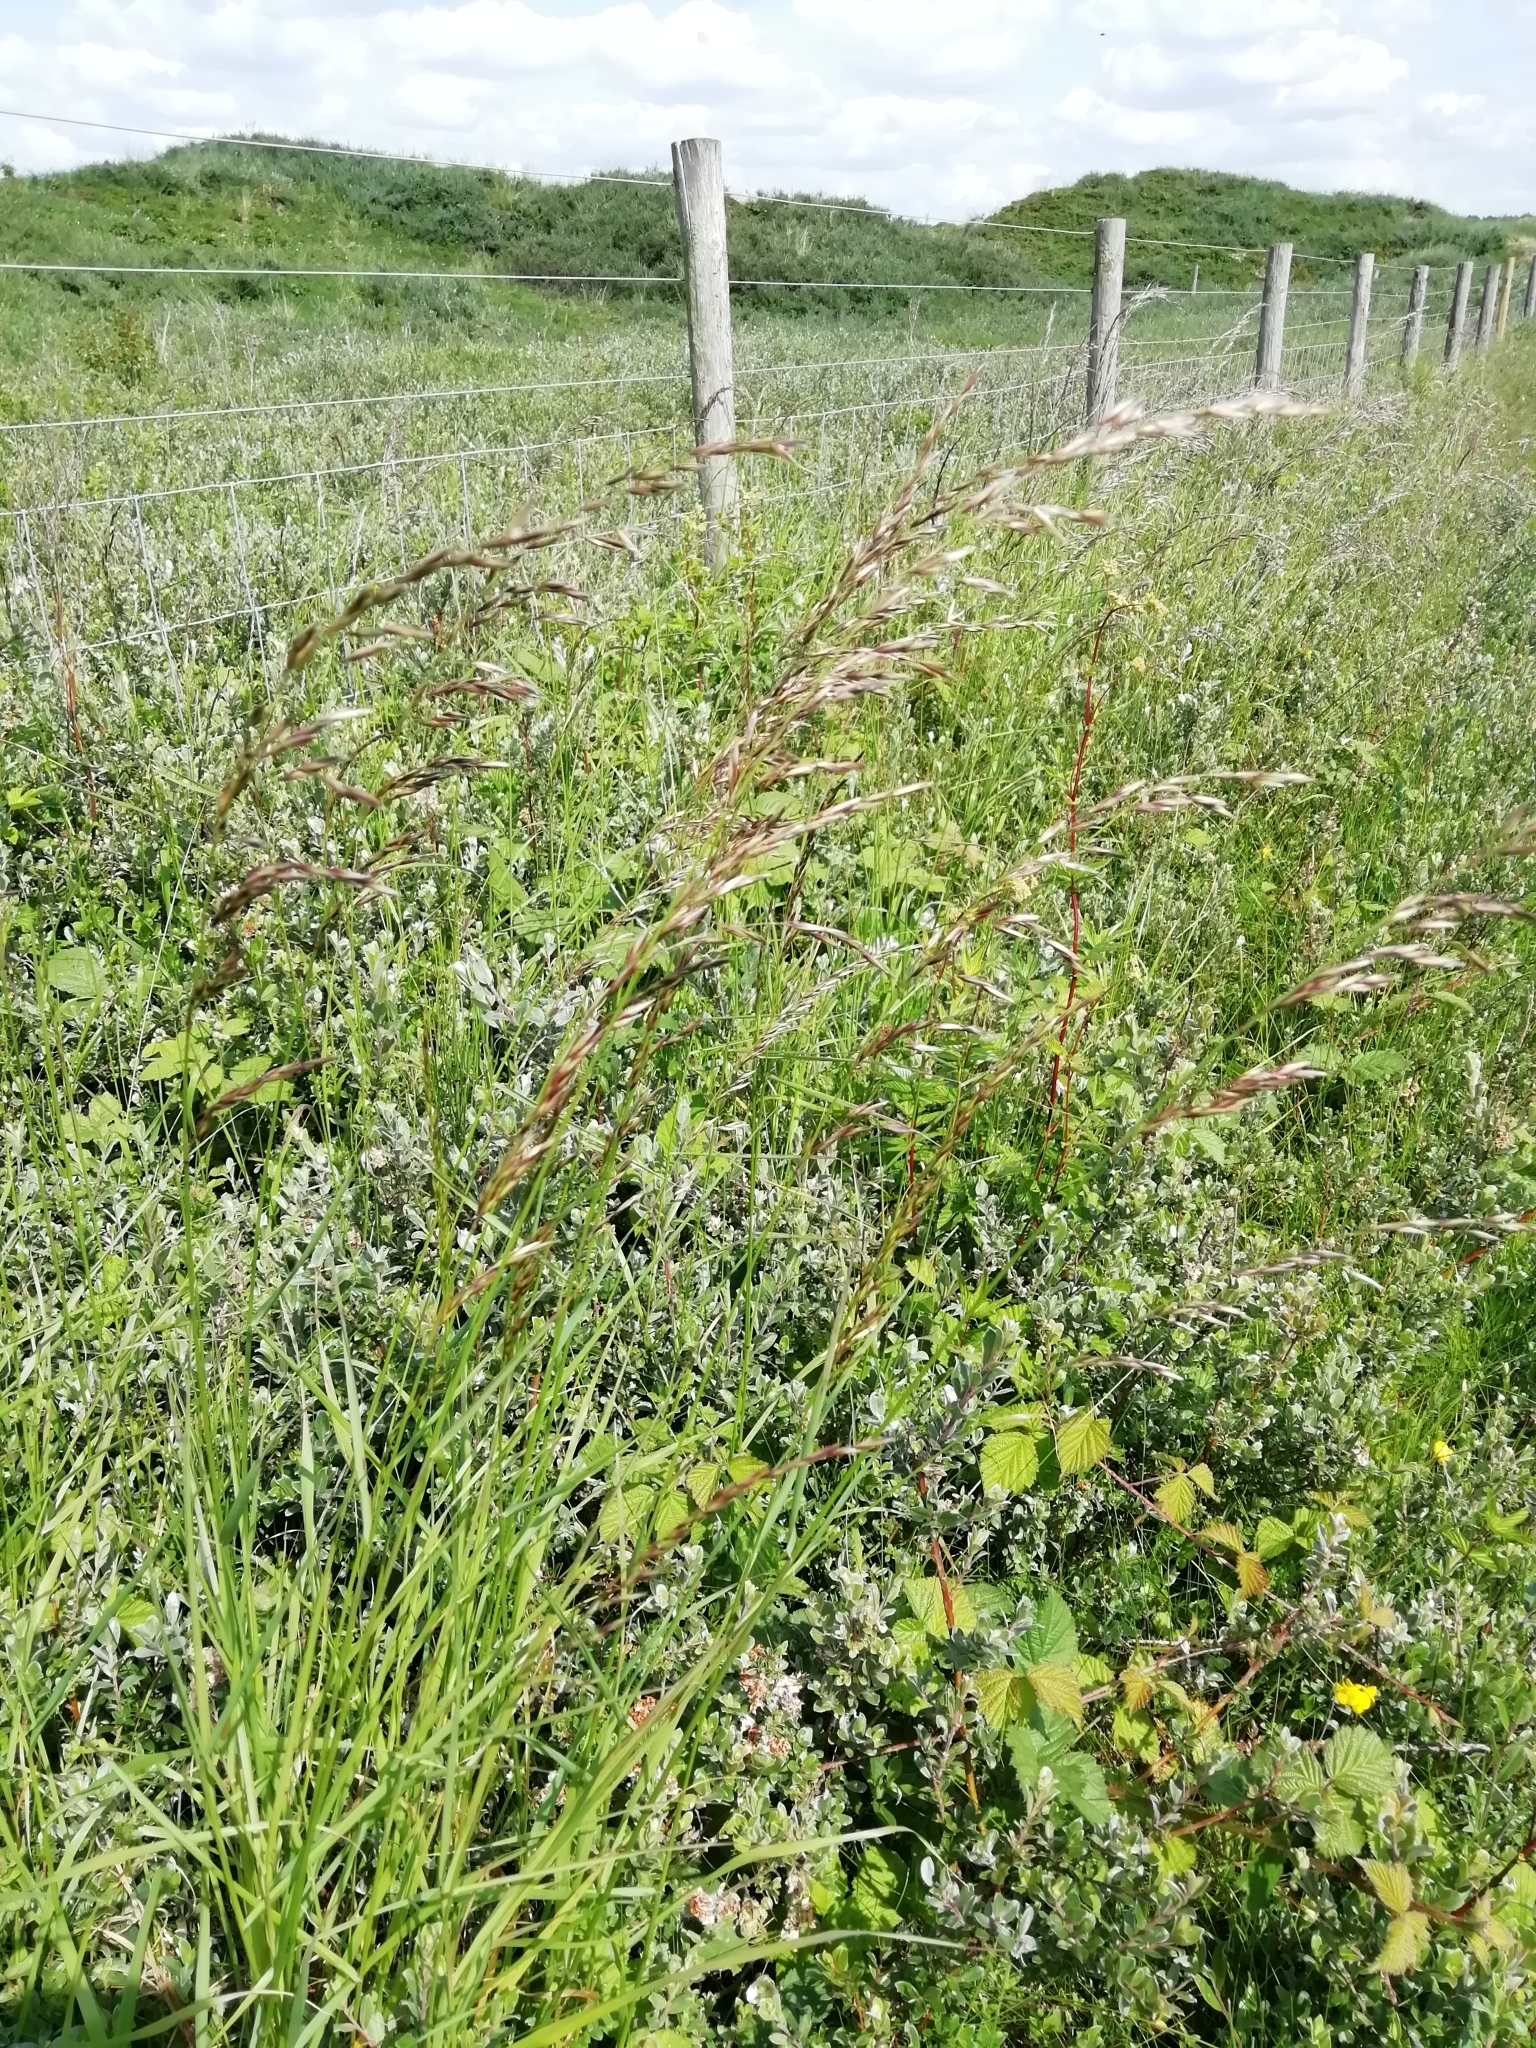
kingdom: Plantae
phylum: Tracheophyta
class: Liliopsida
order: Poales
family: Poaceae
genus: Arrhenatherum
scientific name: Arrhenatherum elatius
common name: Tall oatgrass
